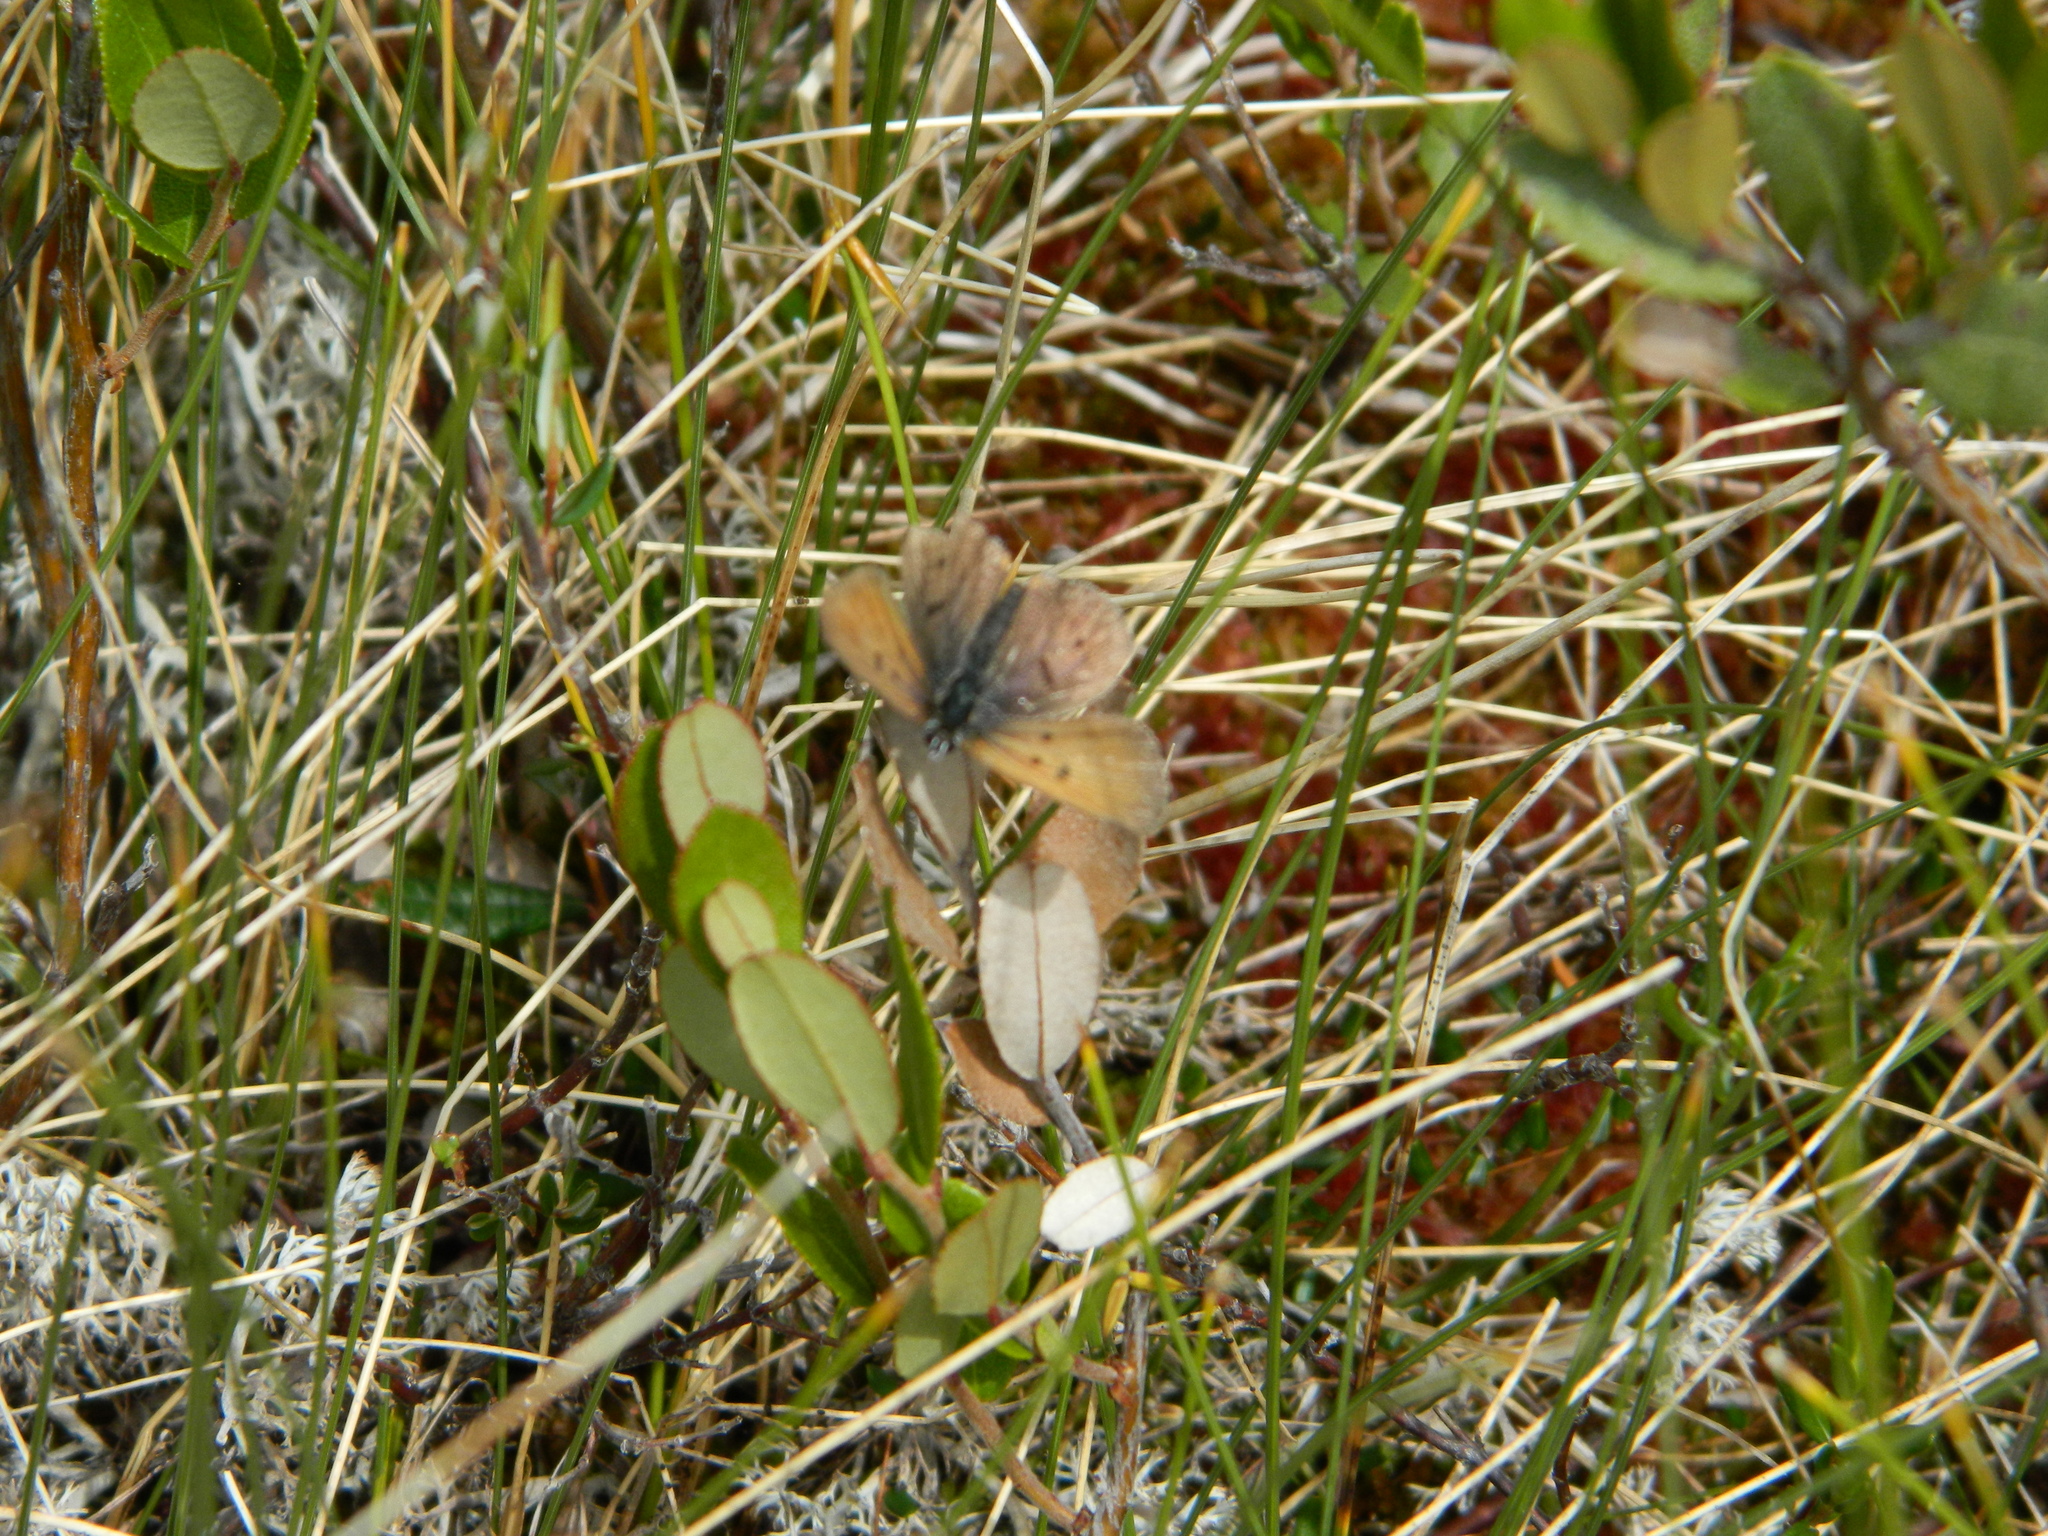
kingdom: Animalia
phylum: Arthropoda
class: Insecta
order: Lepidoptera
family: Lycaenidae
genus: Tharsalea
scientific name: Tharsalea epixanthe
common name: Bog copper
